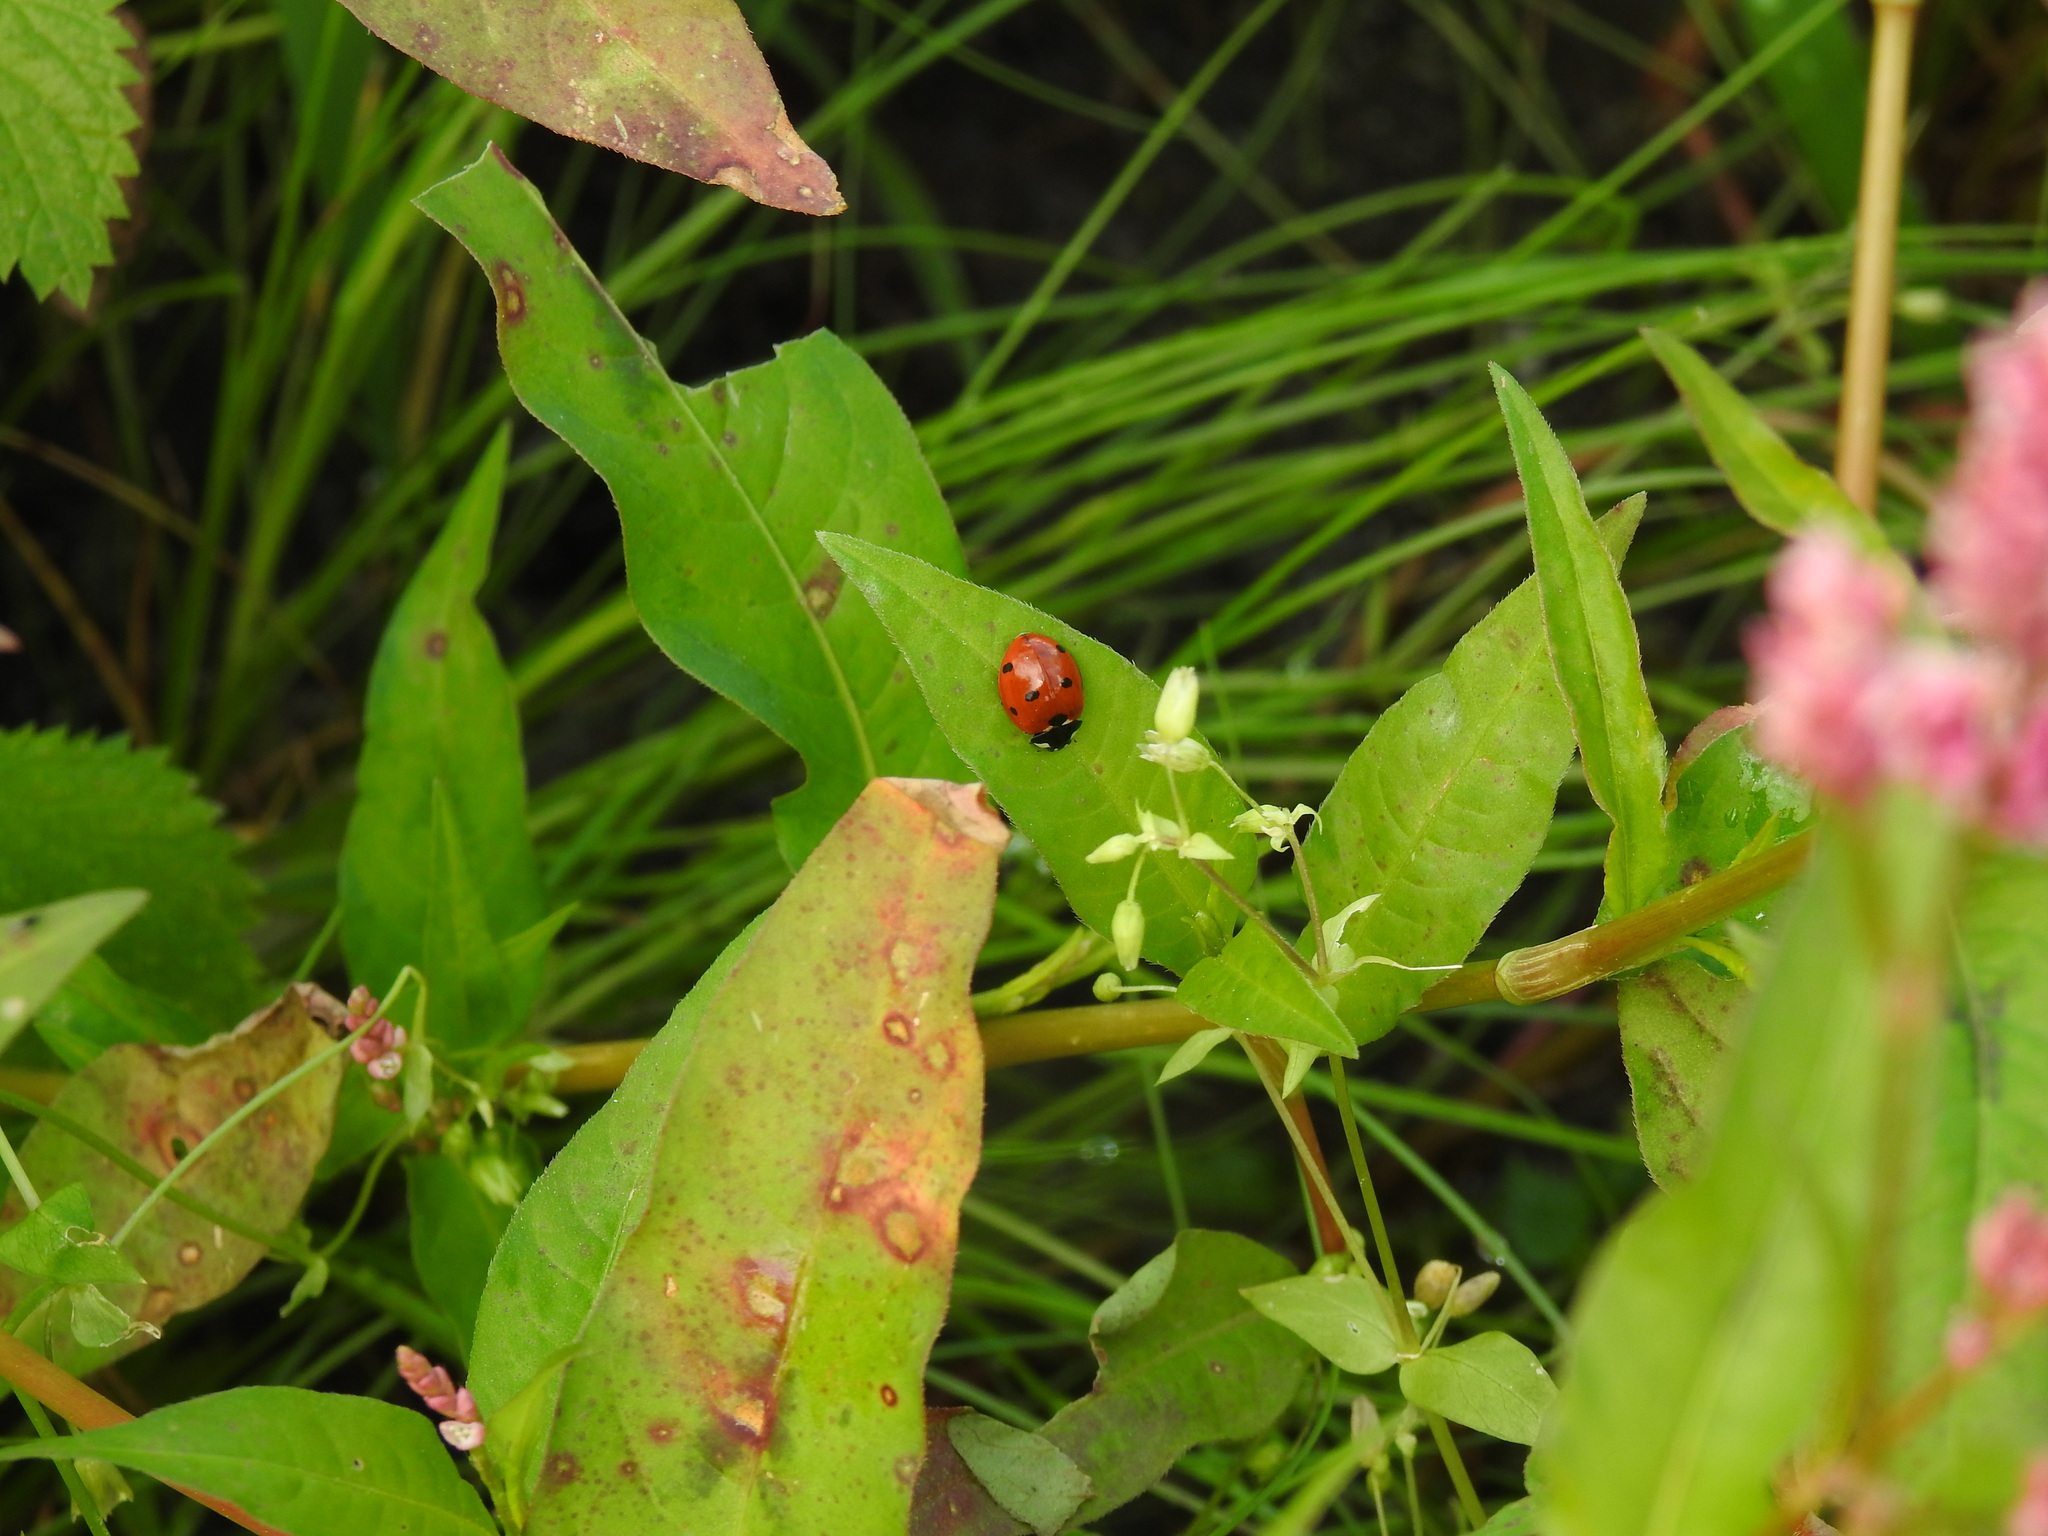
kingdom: Animalia
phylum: Arthropoda
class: Insecta
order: Coleoptera
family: Coccinellidae
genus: Coccinella
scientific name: Coccinella septempunctata
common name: Sevenspotted lady beetle
